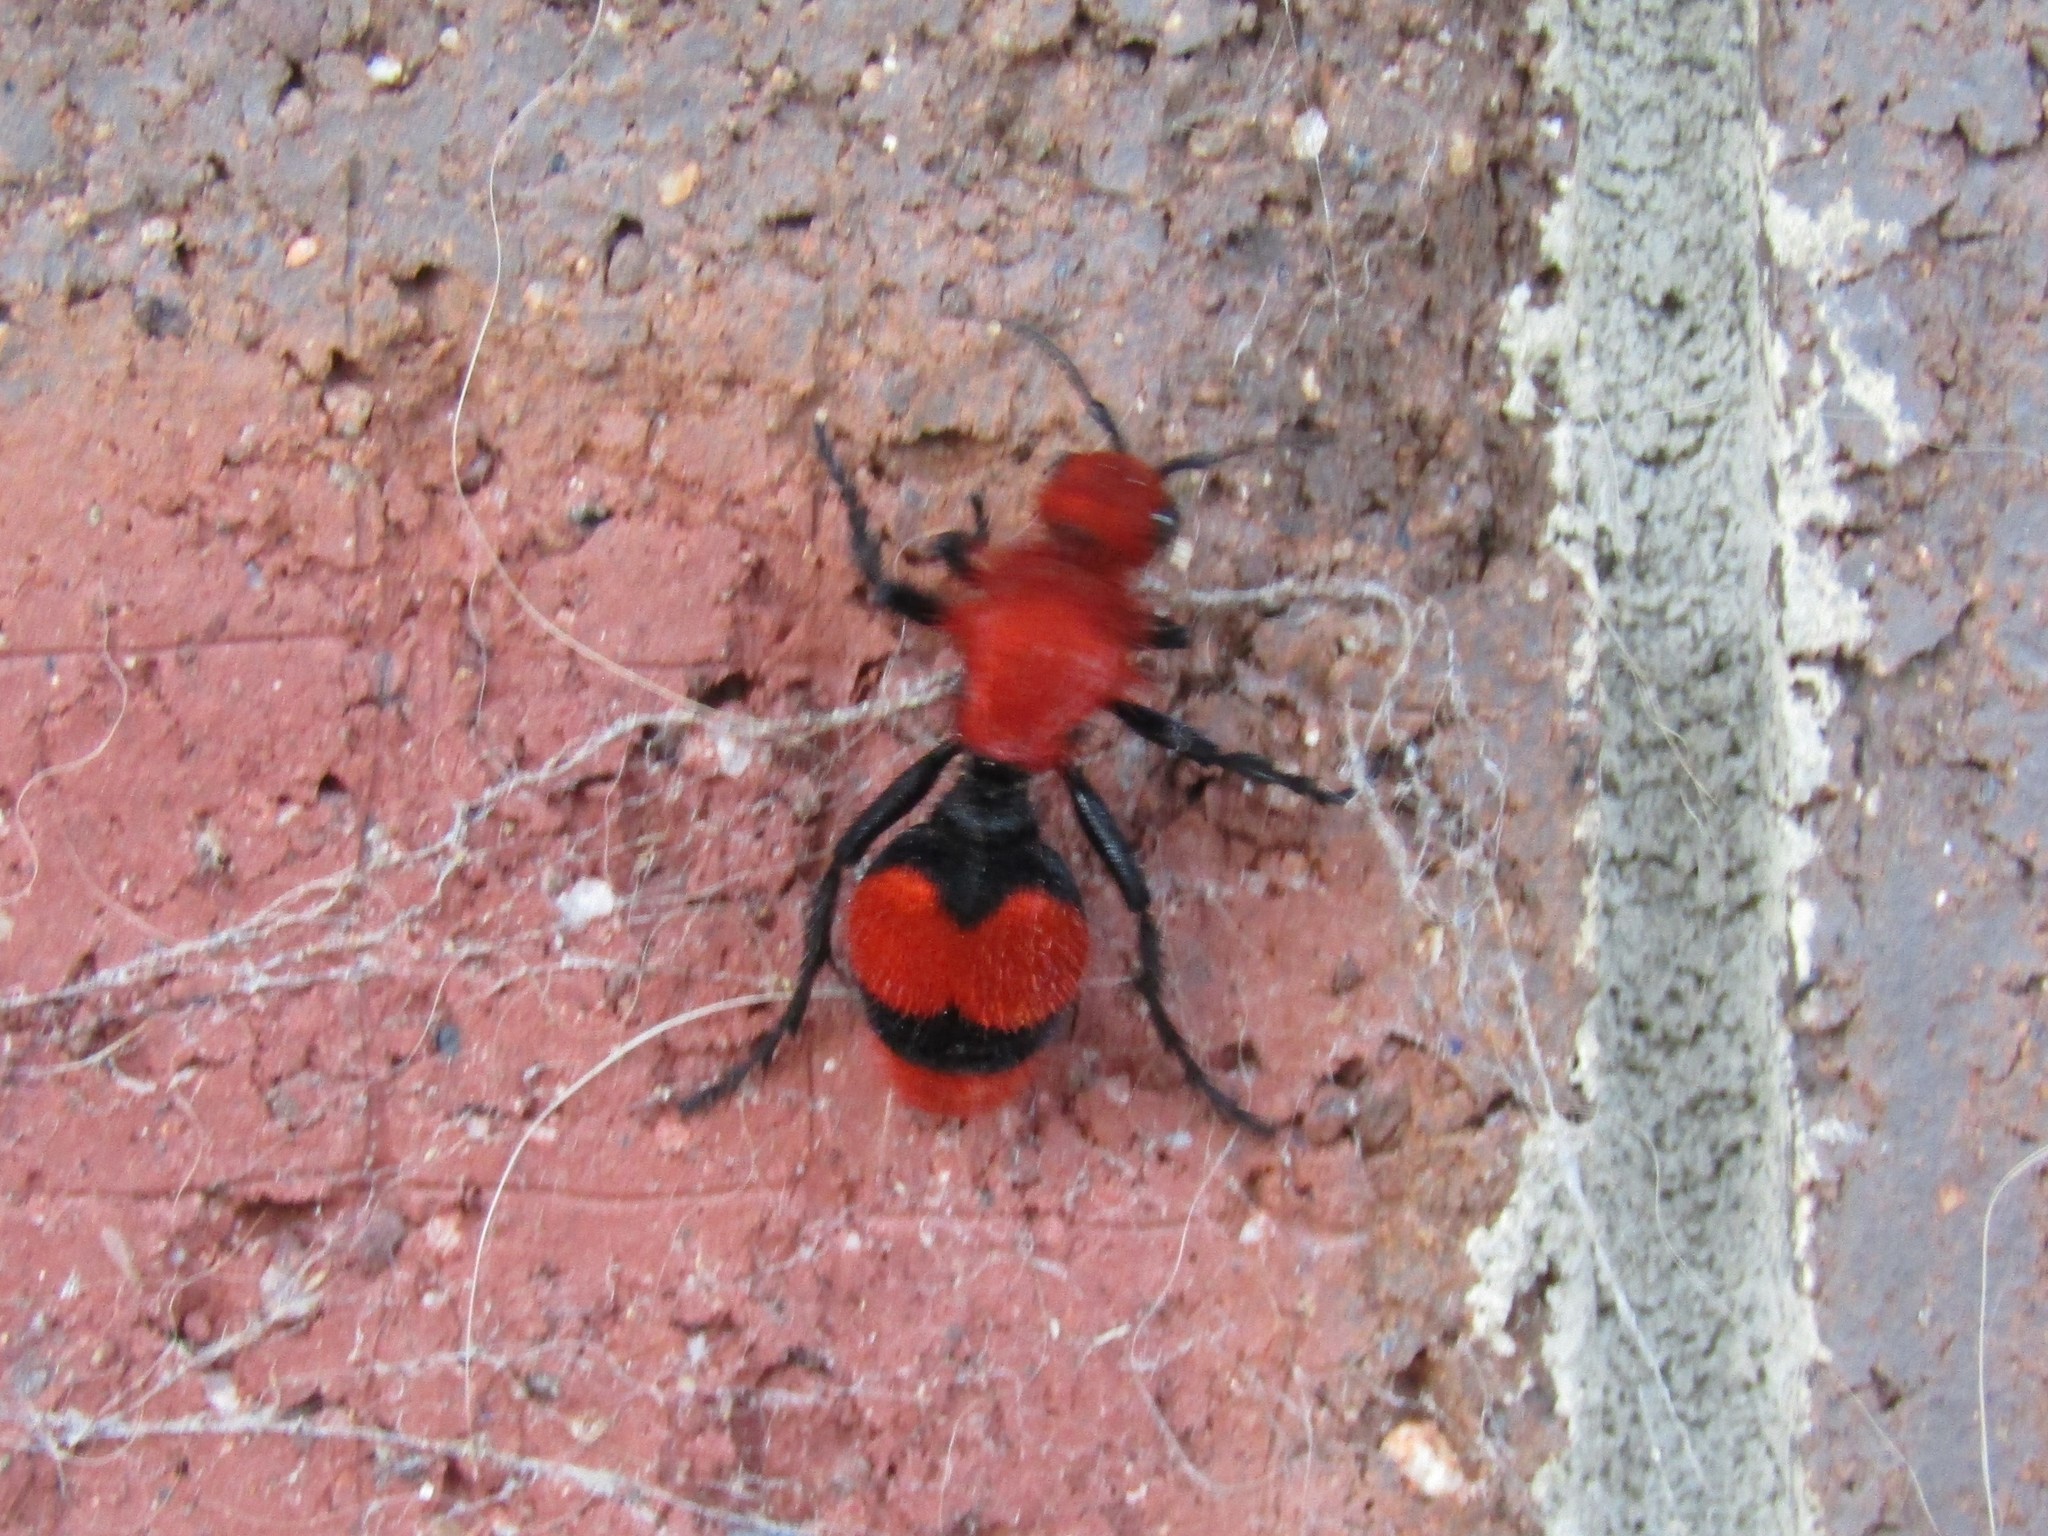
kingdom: Animalia
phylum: Arthropoda
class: Insecta
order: Hymenoptera
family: Mutillidae
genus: Dasymutilla
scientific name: Dasymutilla occidentalis
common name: Common eastern velvet ant
